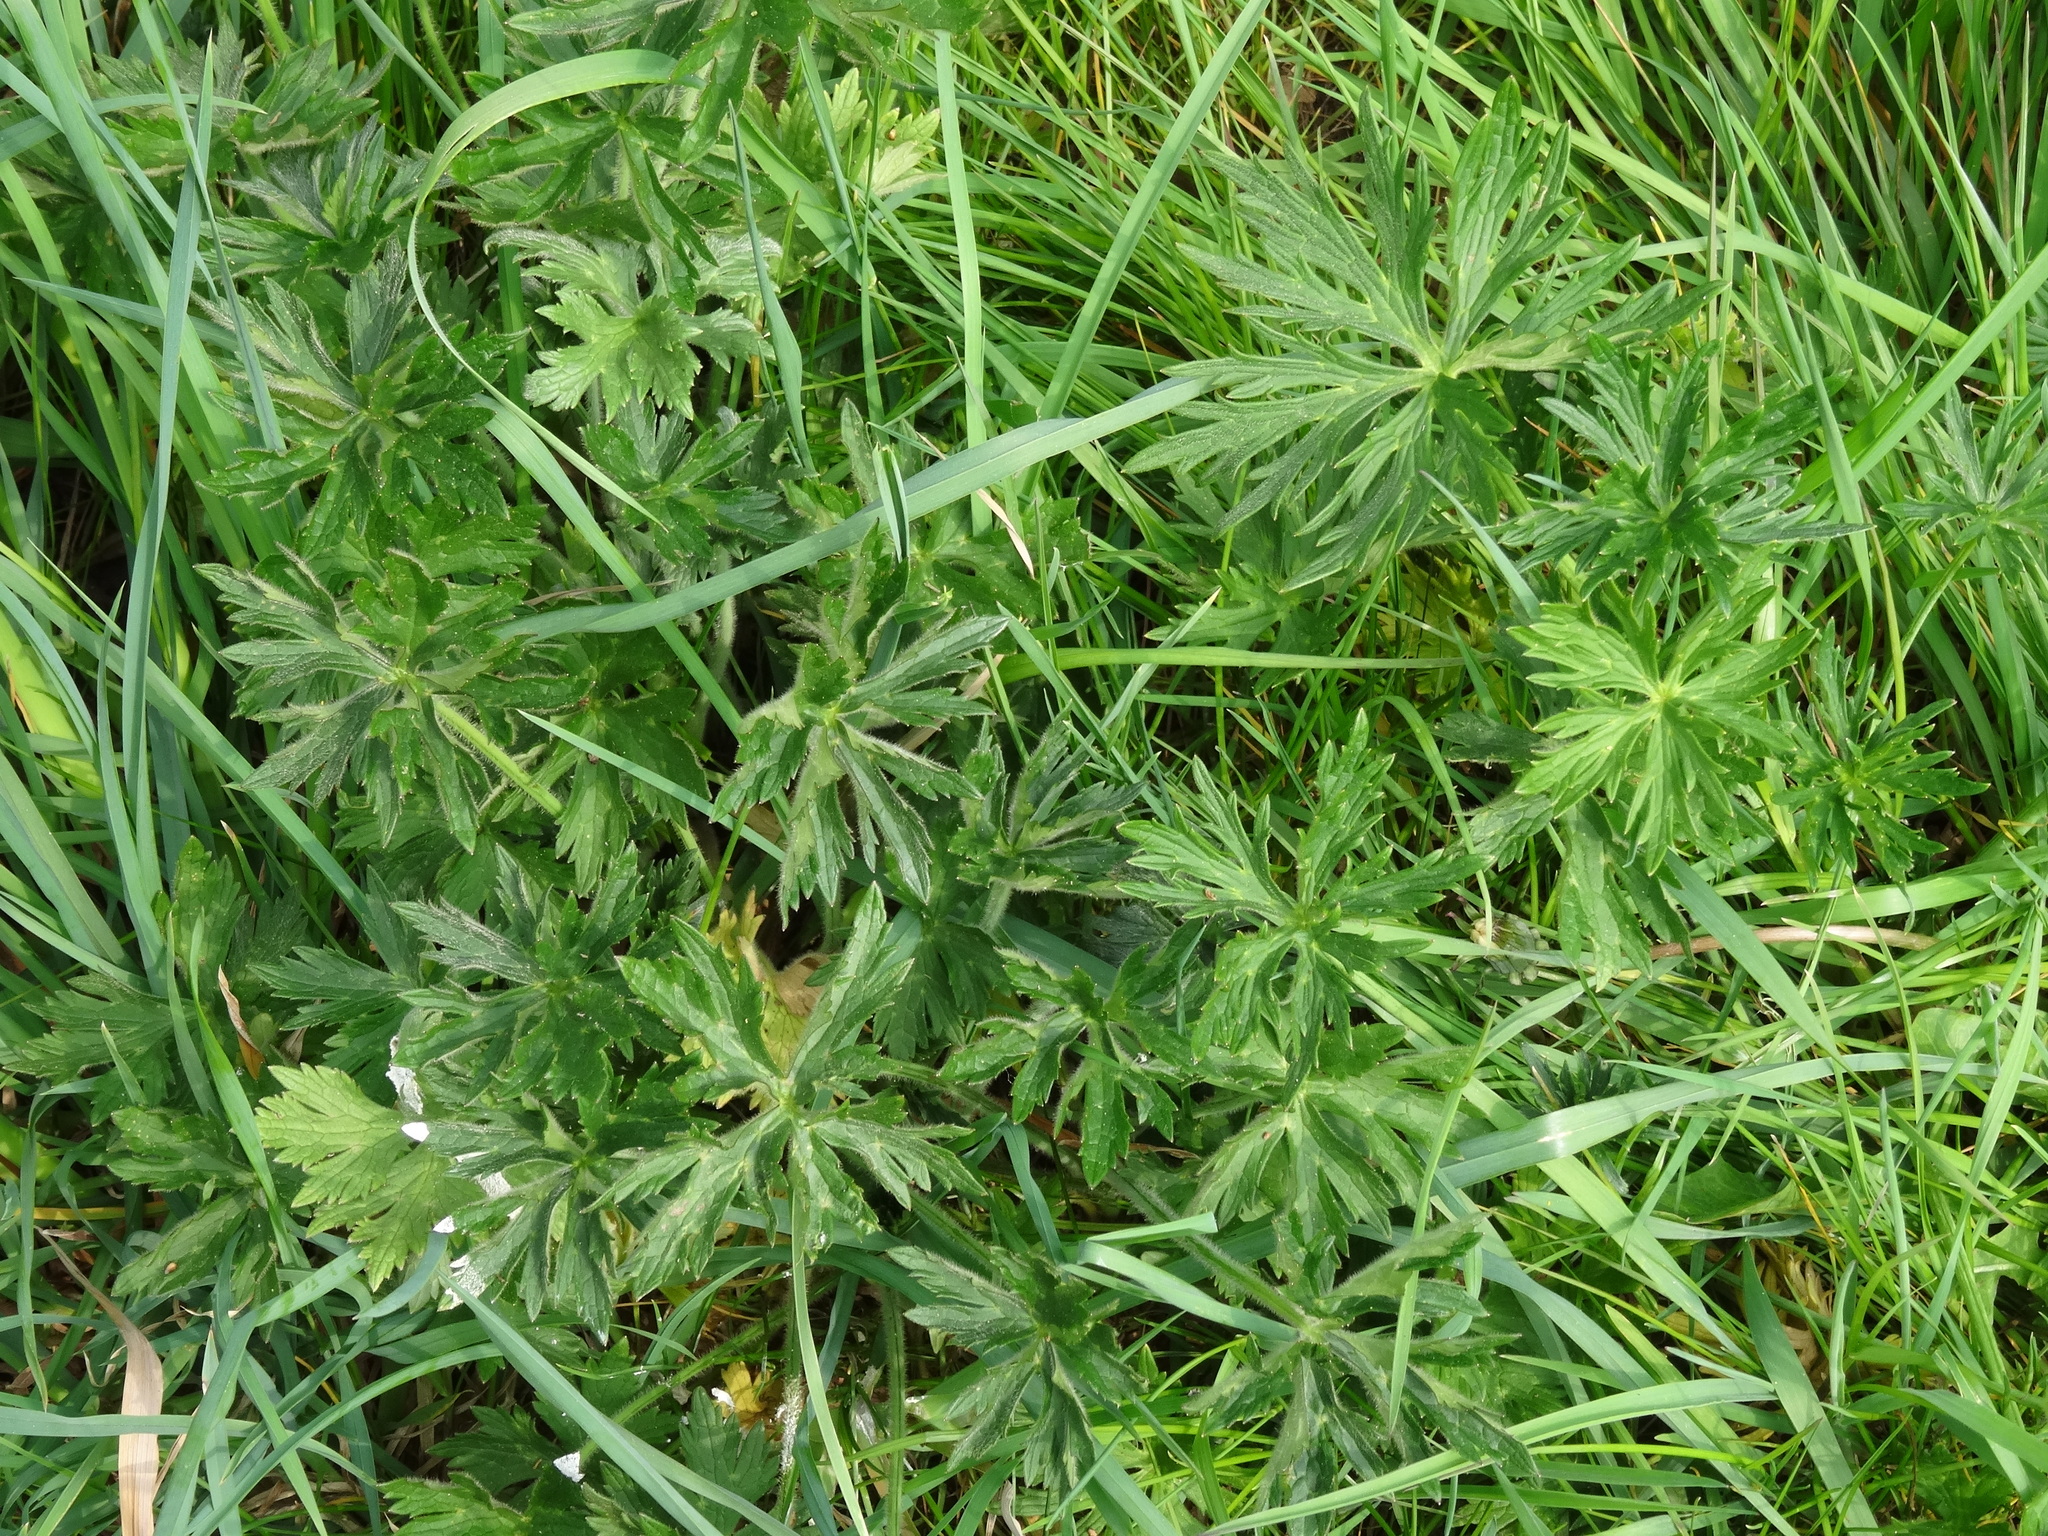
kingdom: Plantae
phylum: Tracheophyta
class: Magnoliopsida
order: Geraniales
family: Geraniaceae
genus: Geranium
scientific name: Geranium pratense
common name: Meadow crane's-bill
